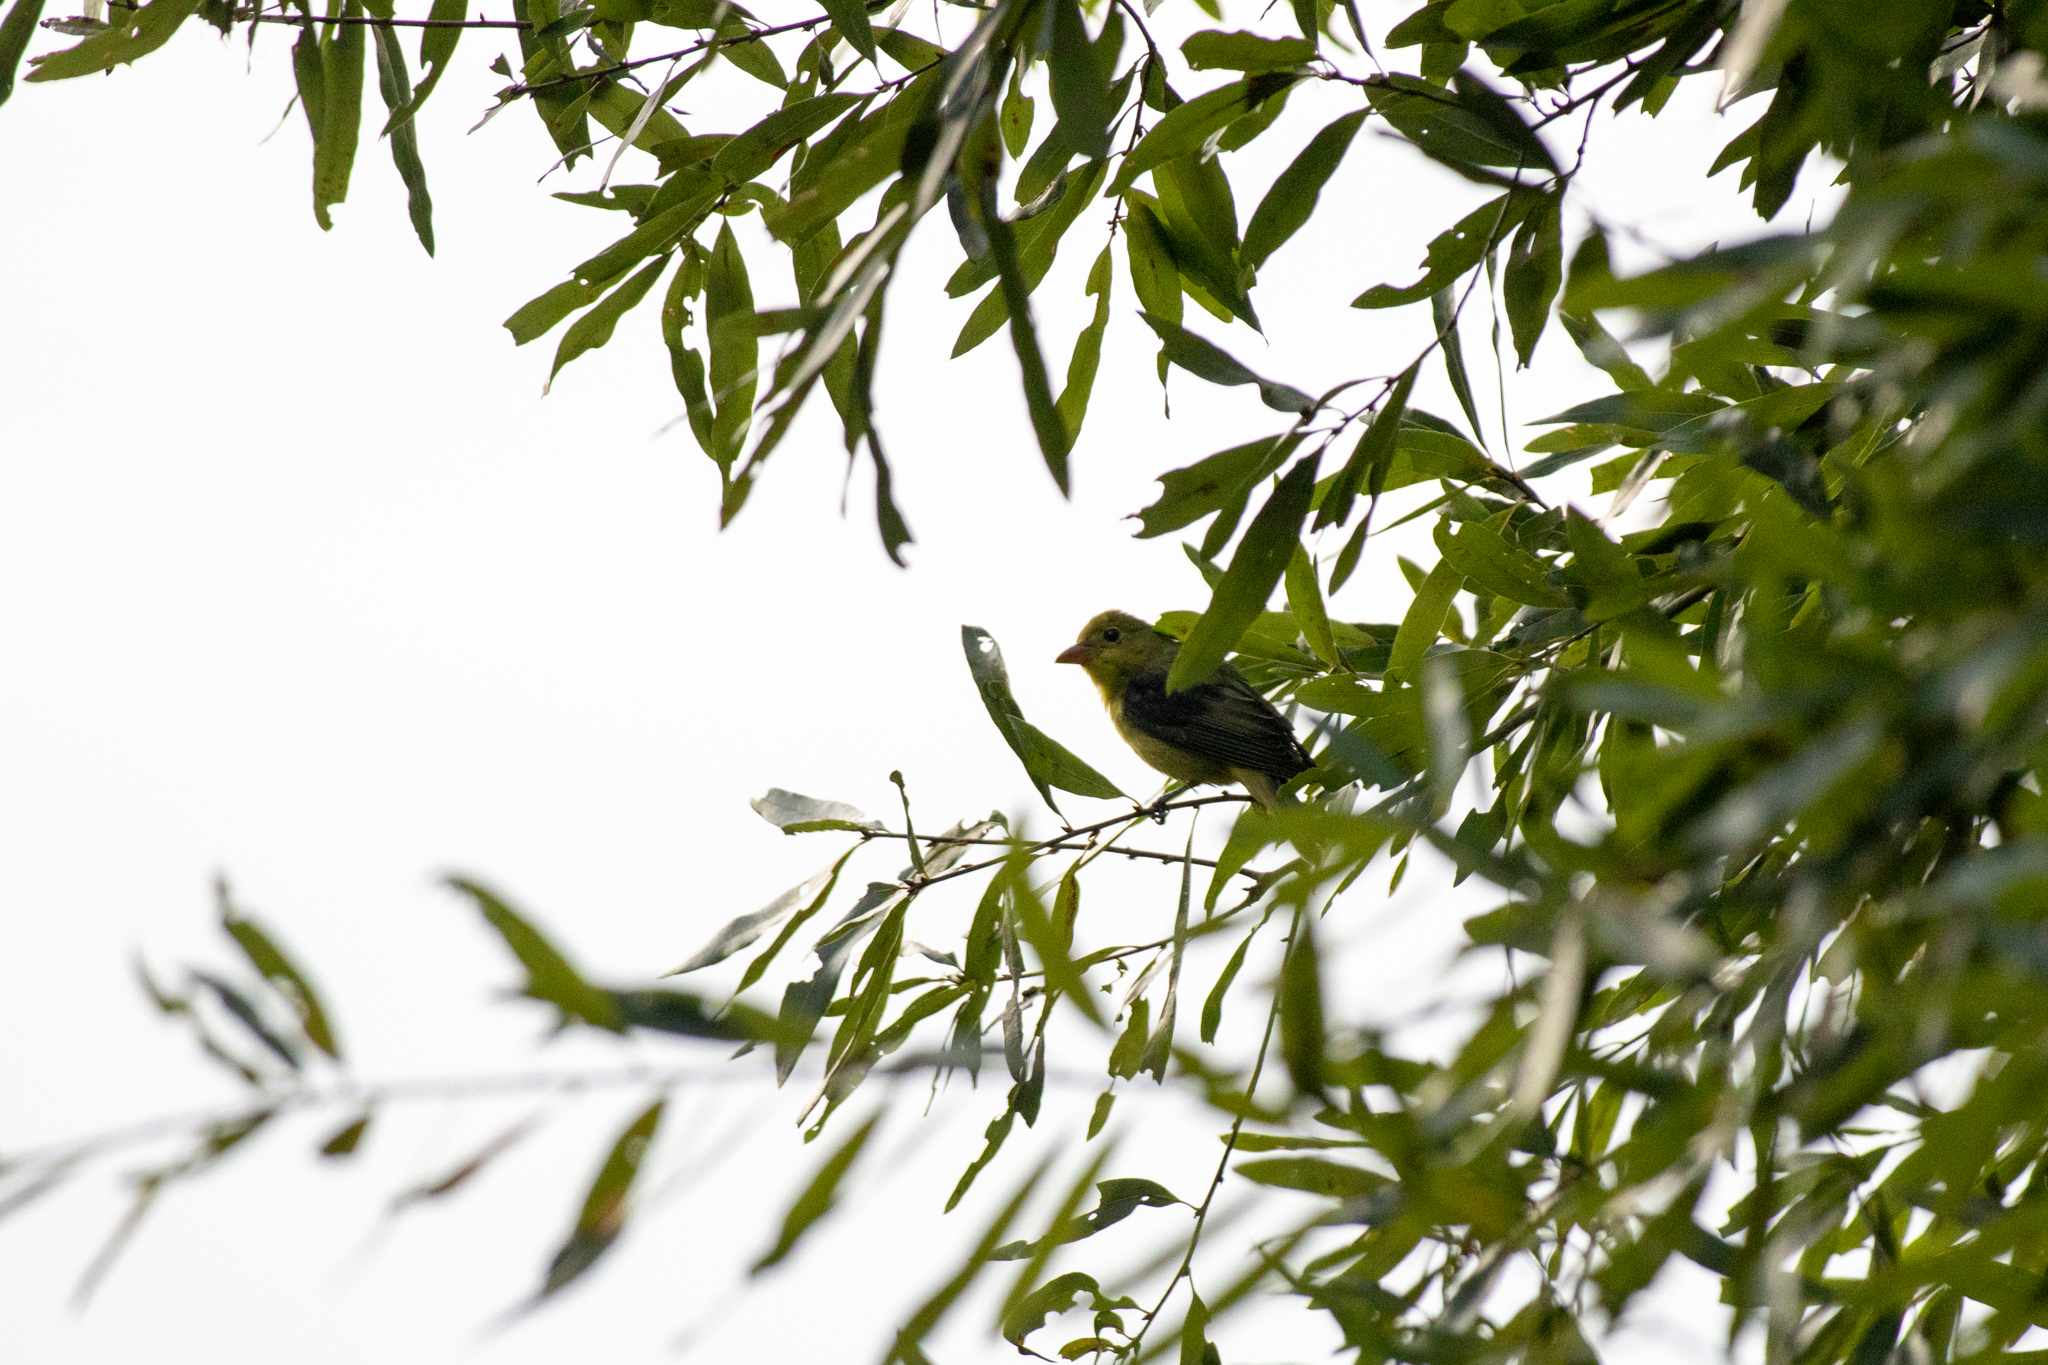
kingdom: Animalia
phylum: Chordata
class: Aves
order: Passeriformes
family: Cardinalidae
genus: Piranga
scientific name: Piranga olivacea
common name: Scarlet tanager
